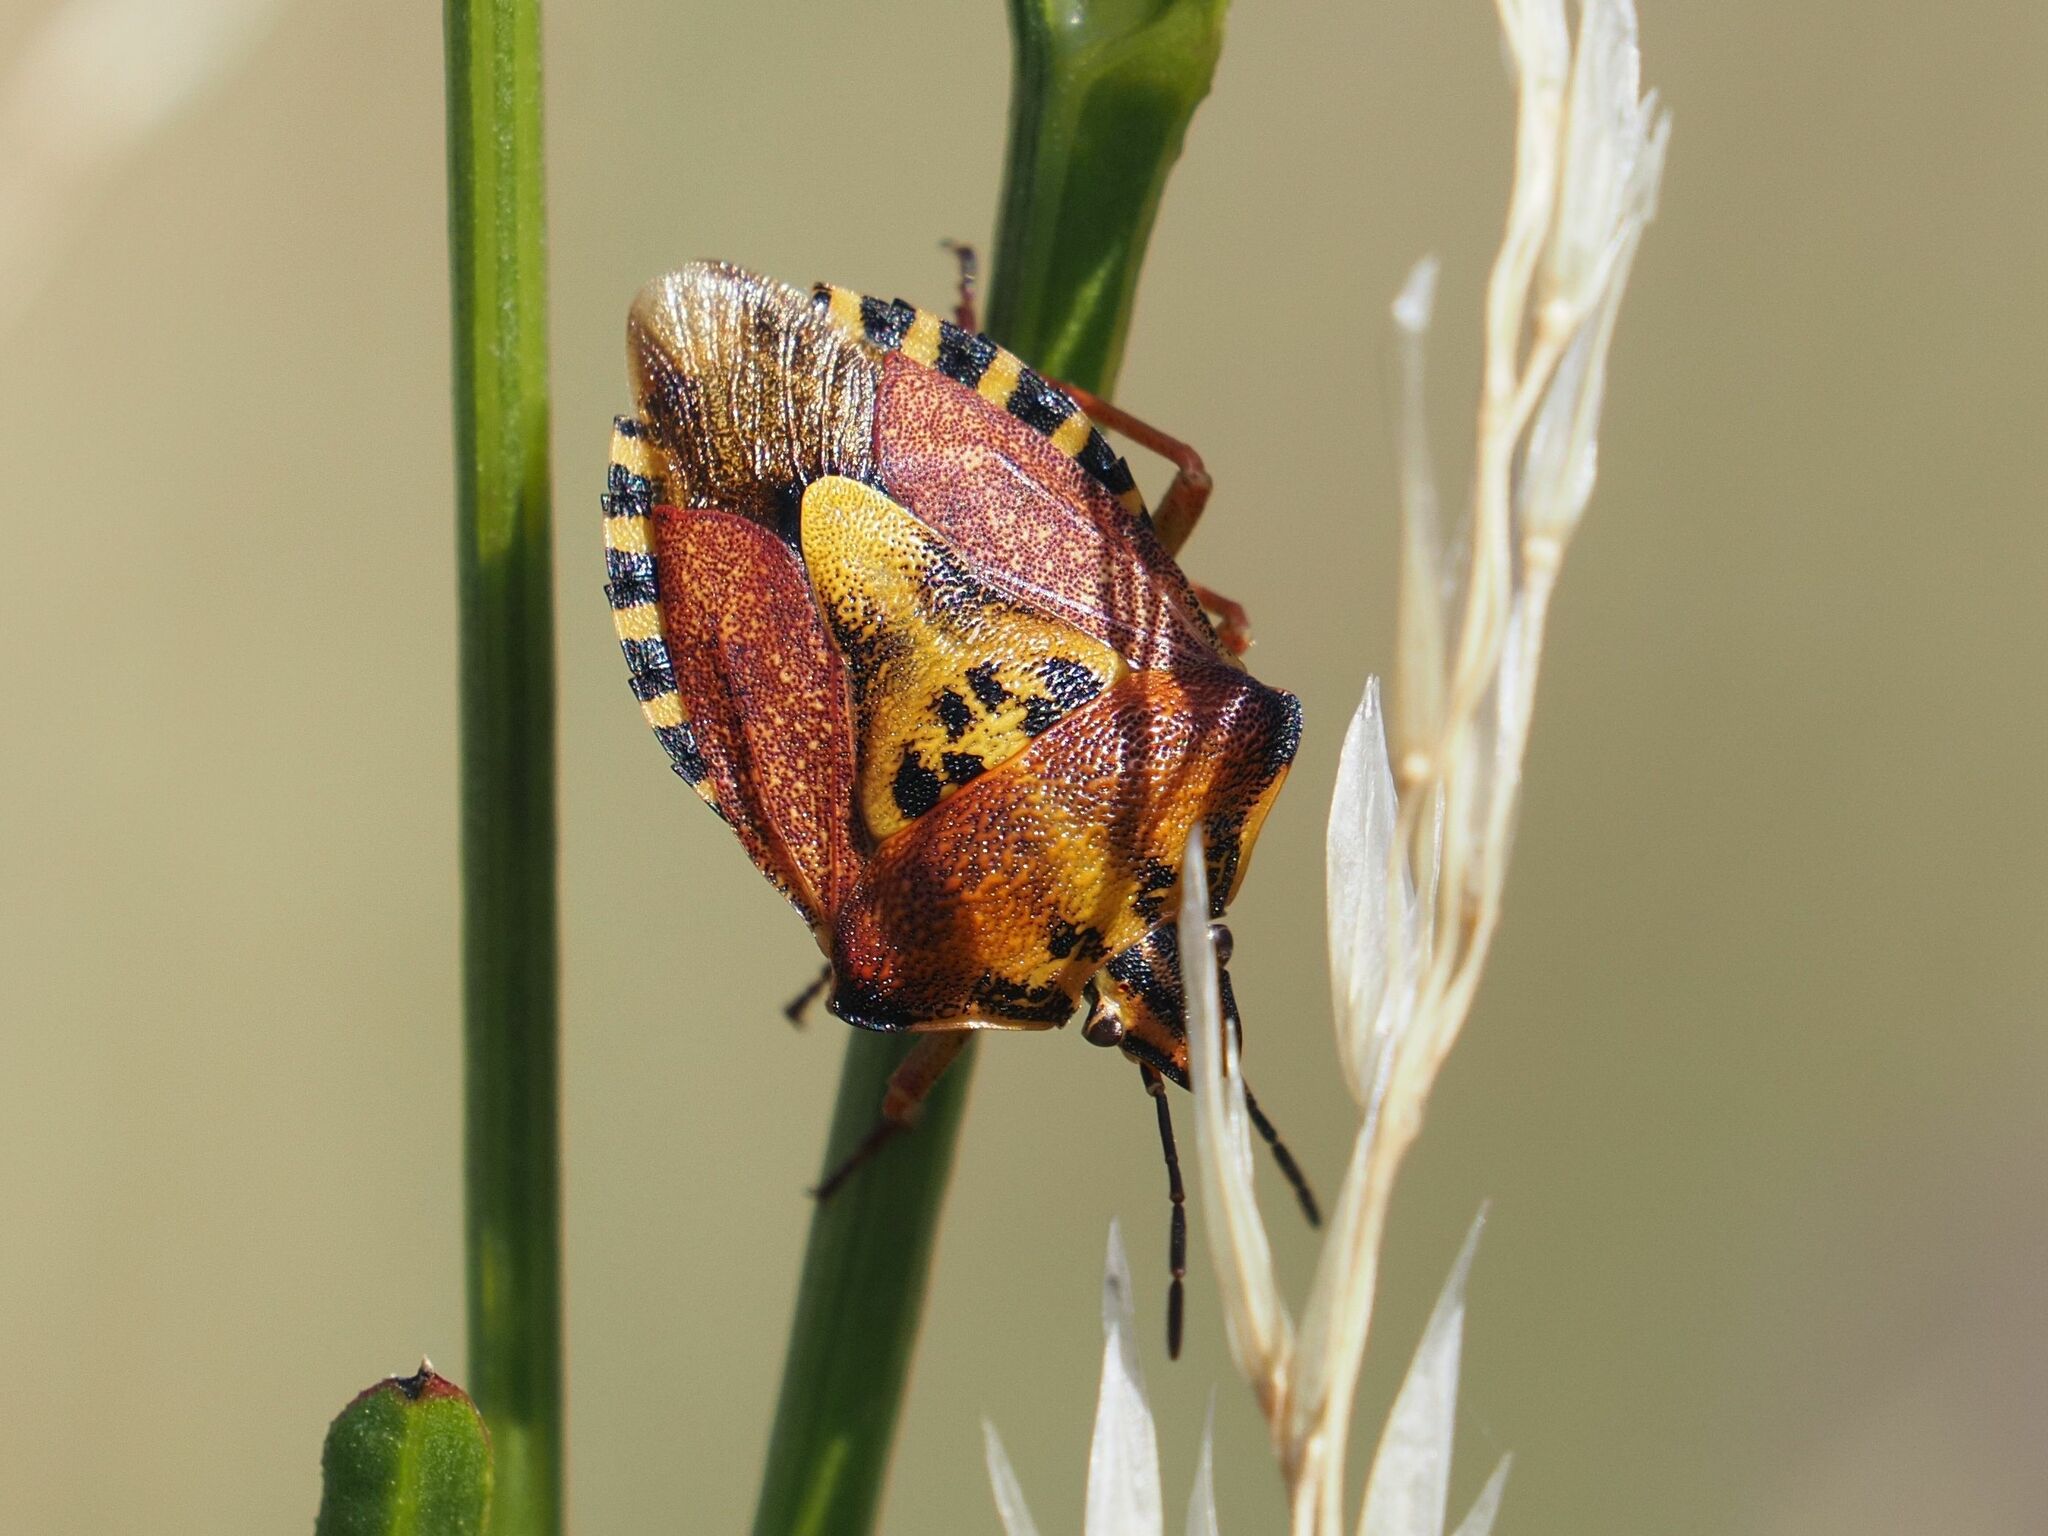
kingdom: Animalia
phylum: Arthropoda
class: Insecta
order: Hemiptera
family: Pentatomidae
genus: Carpocoris
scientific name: Carpocoris purpureipennis
